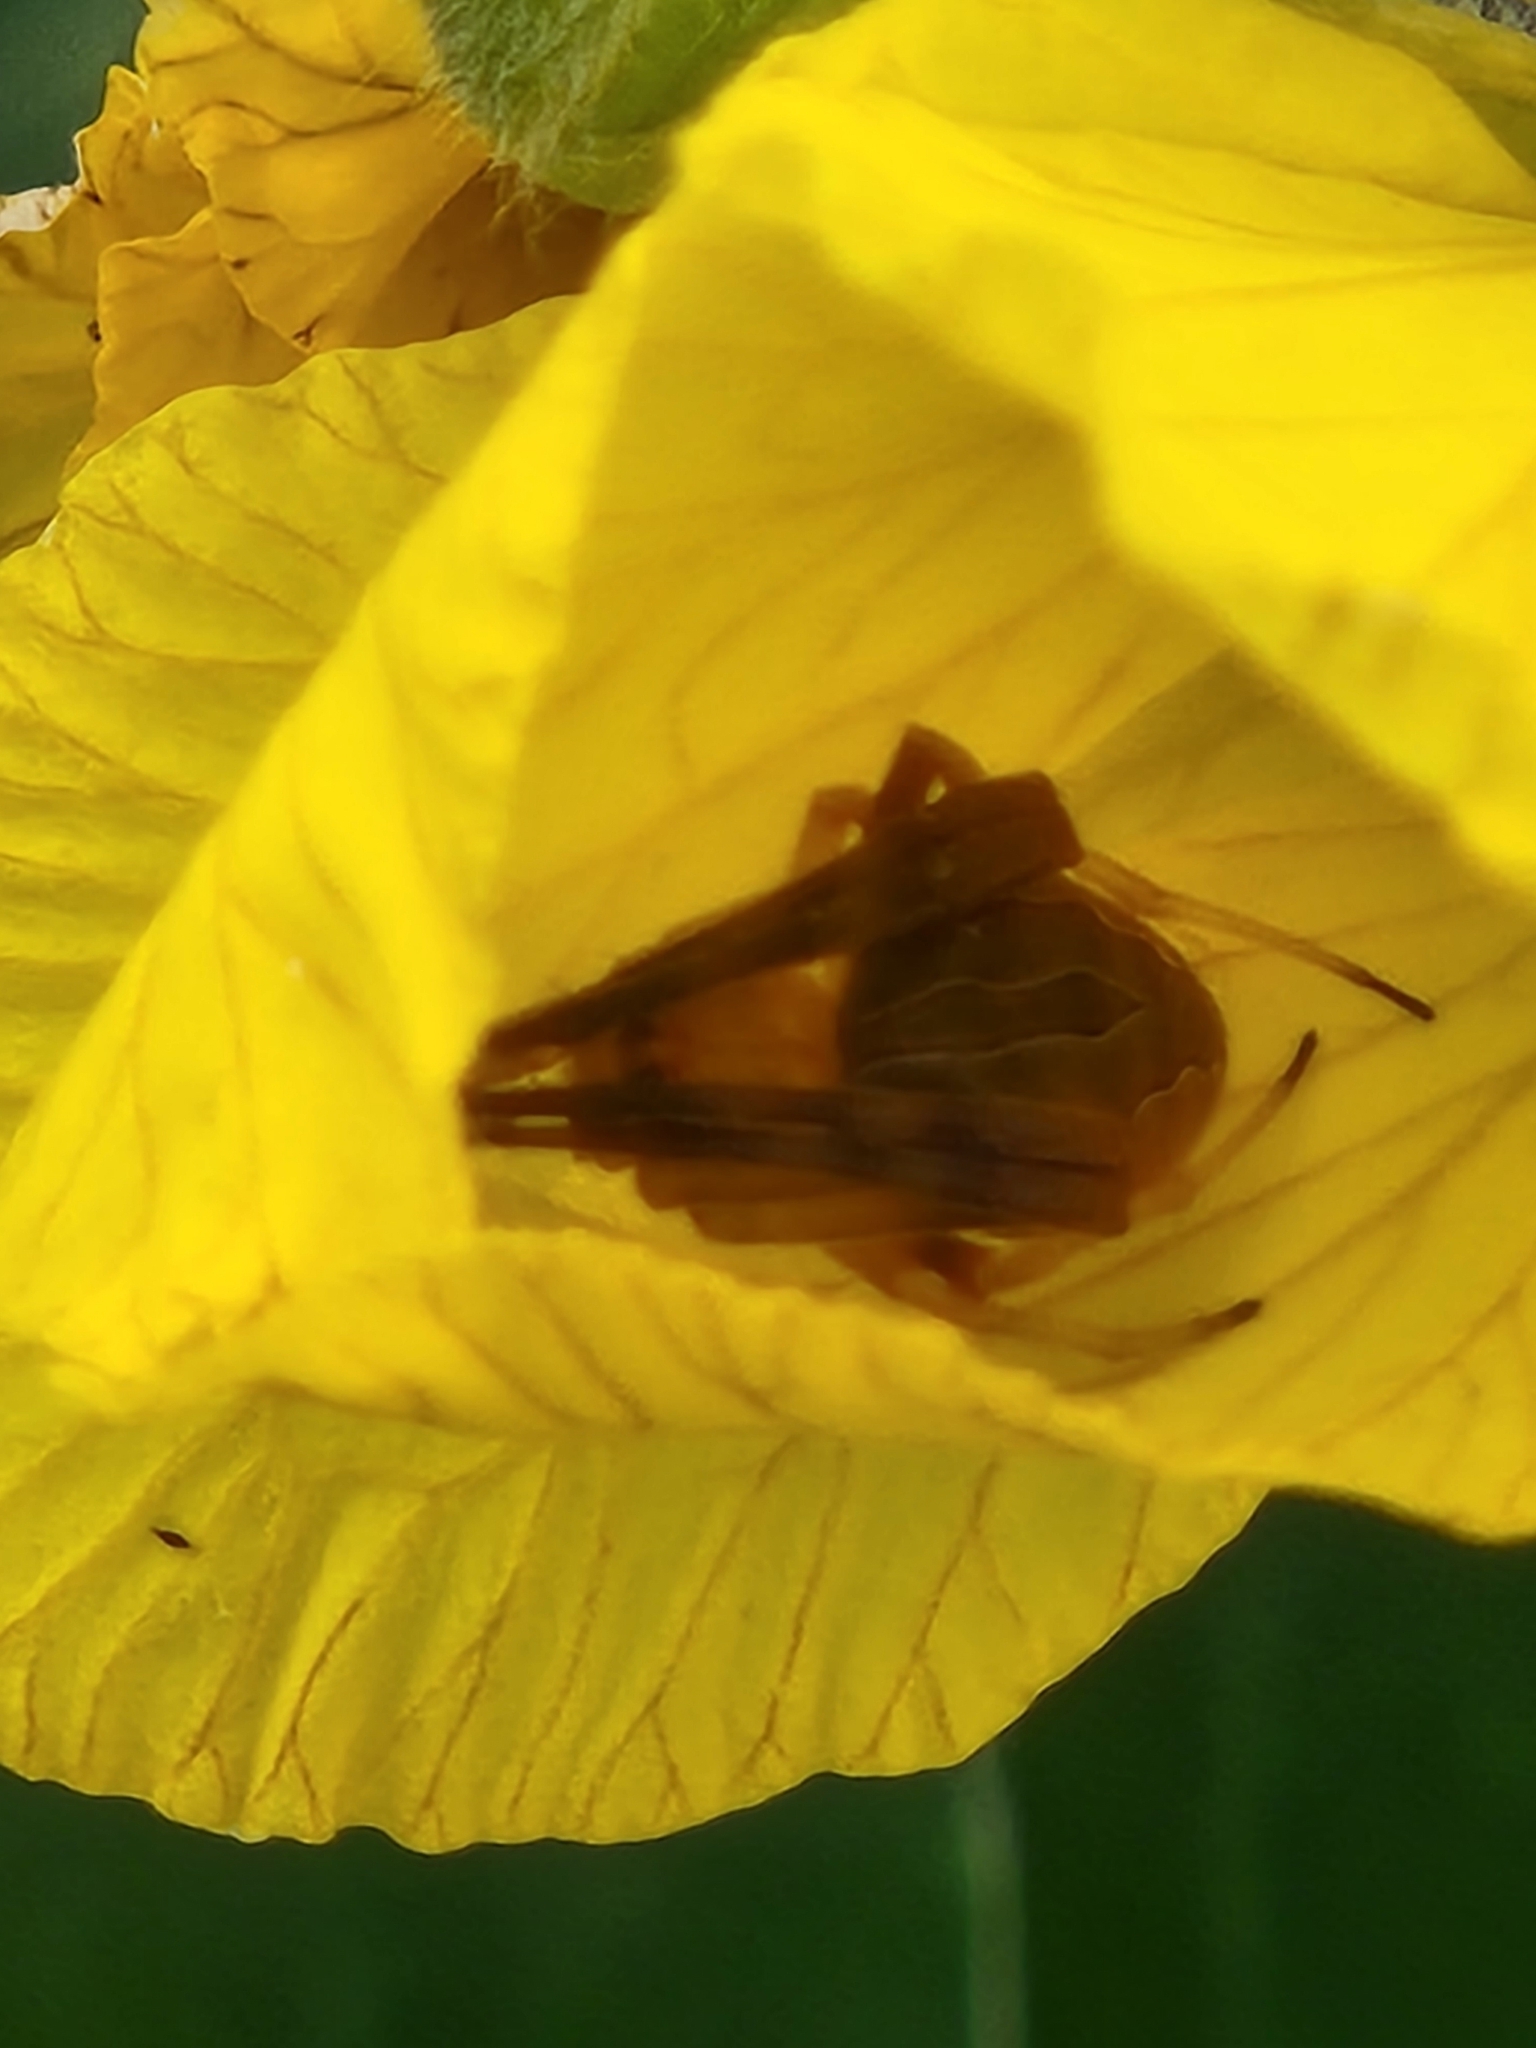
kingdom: Animalia
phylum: Arthropoda
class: Arachnida
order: Araneae
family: Araneidae
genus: Acacesia
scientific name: Acacesia hamata
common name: Orb weavers
